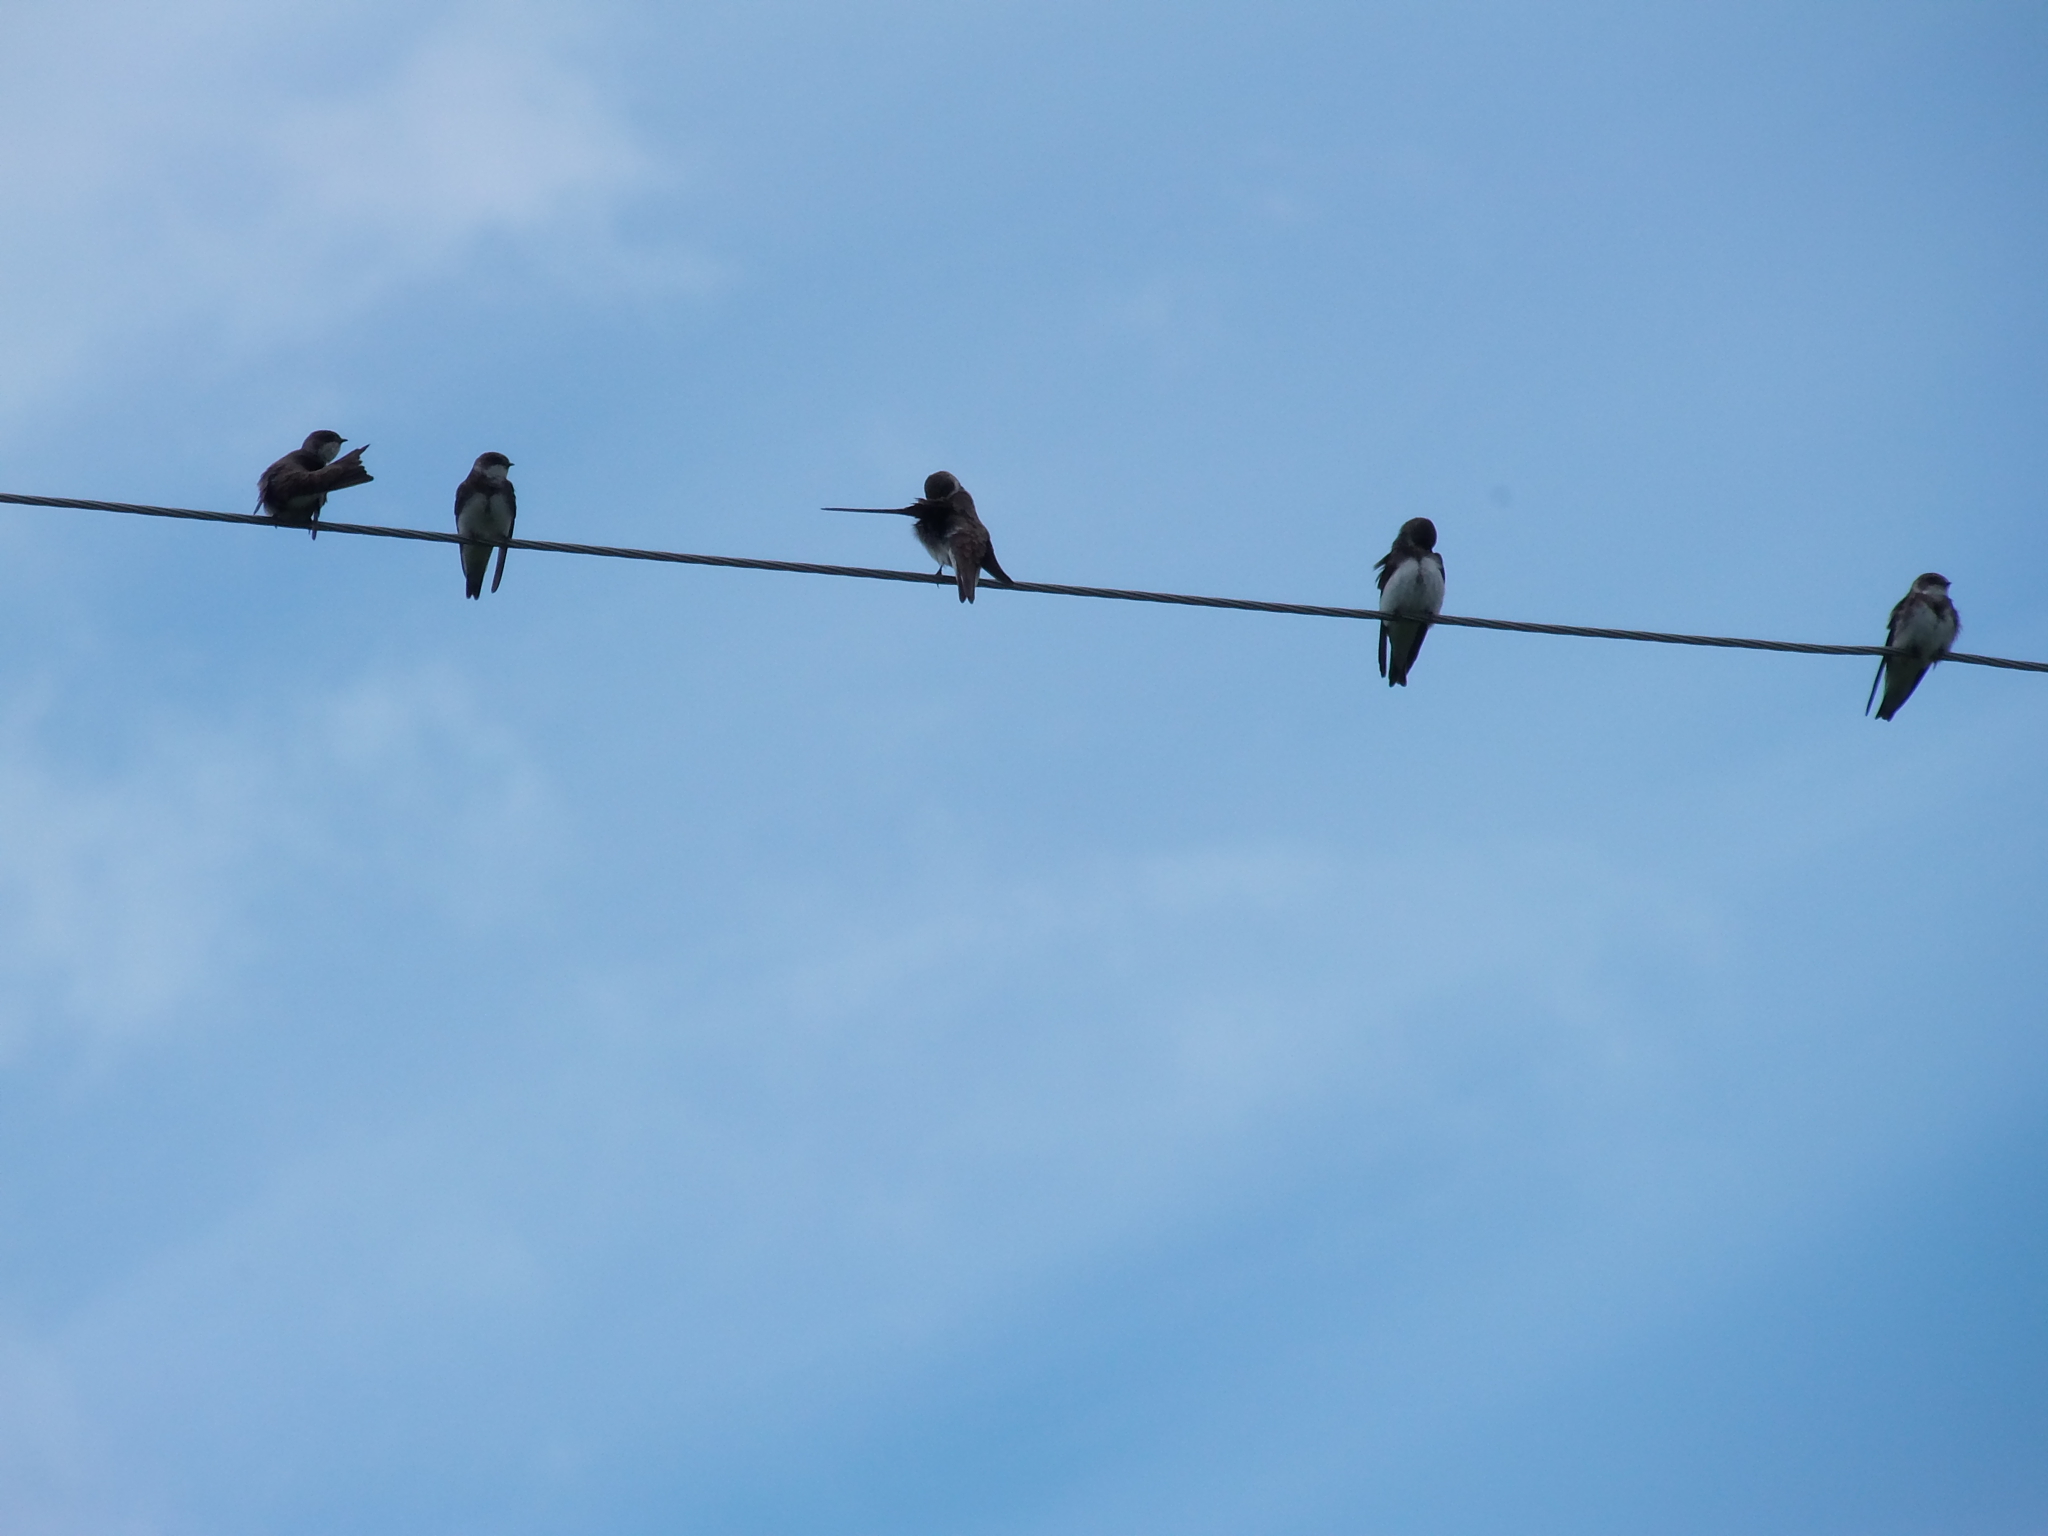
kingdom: Animalia
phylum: Chordata
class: Aves
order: Passeriformes
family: Hirundinidae
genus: Riparia
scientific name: Riparia riparia
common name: Sand martin
